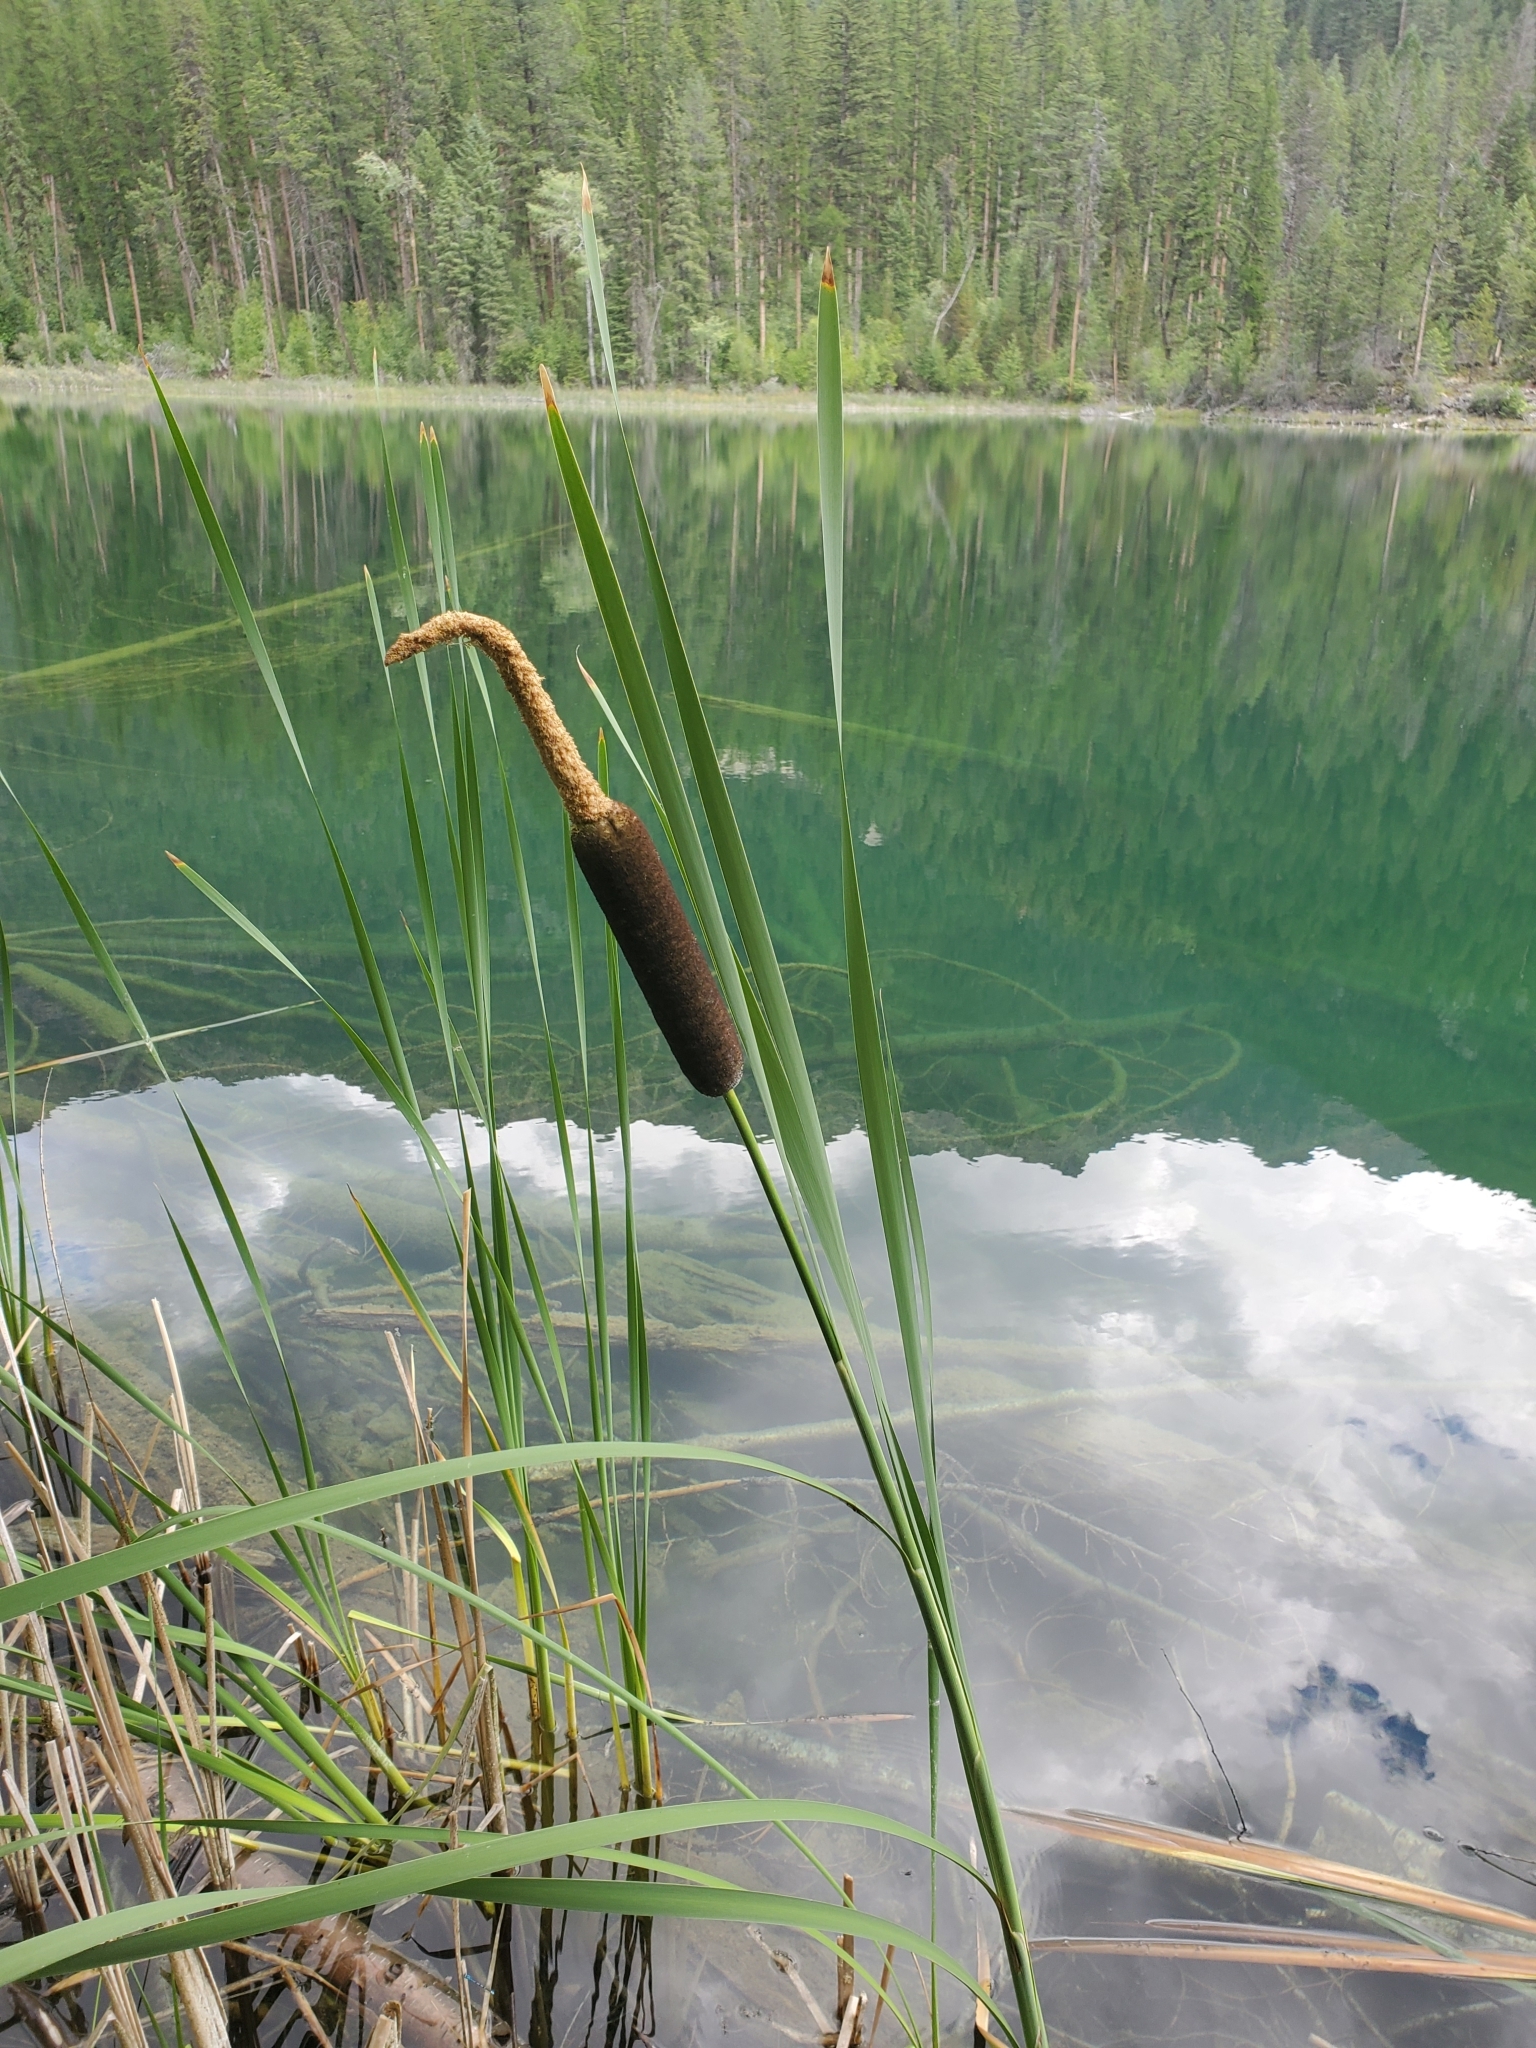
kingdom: Plantae
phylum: Tracheophyta
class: Liliopsida
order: Poales
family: Typhaceae
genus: Typha
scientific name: Typha latifolia
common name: Broadleaf cattail
